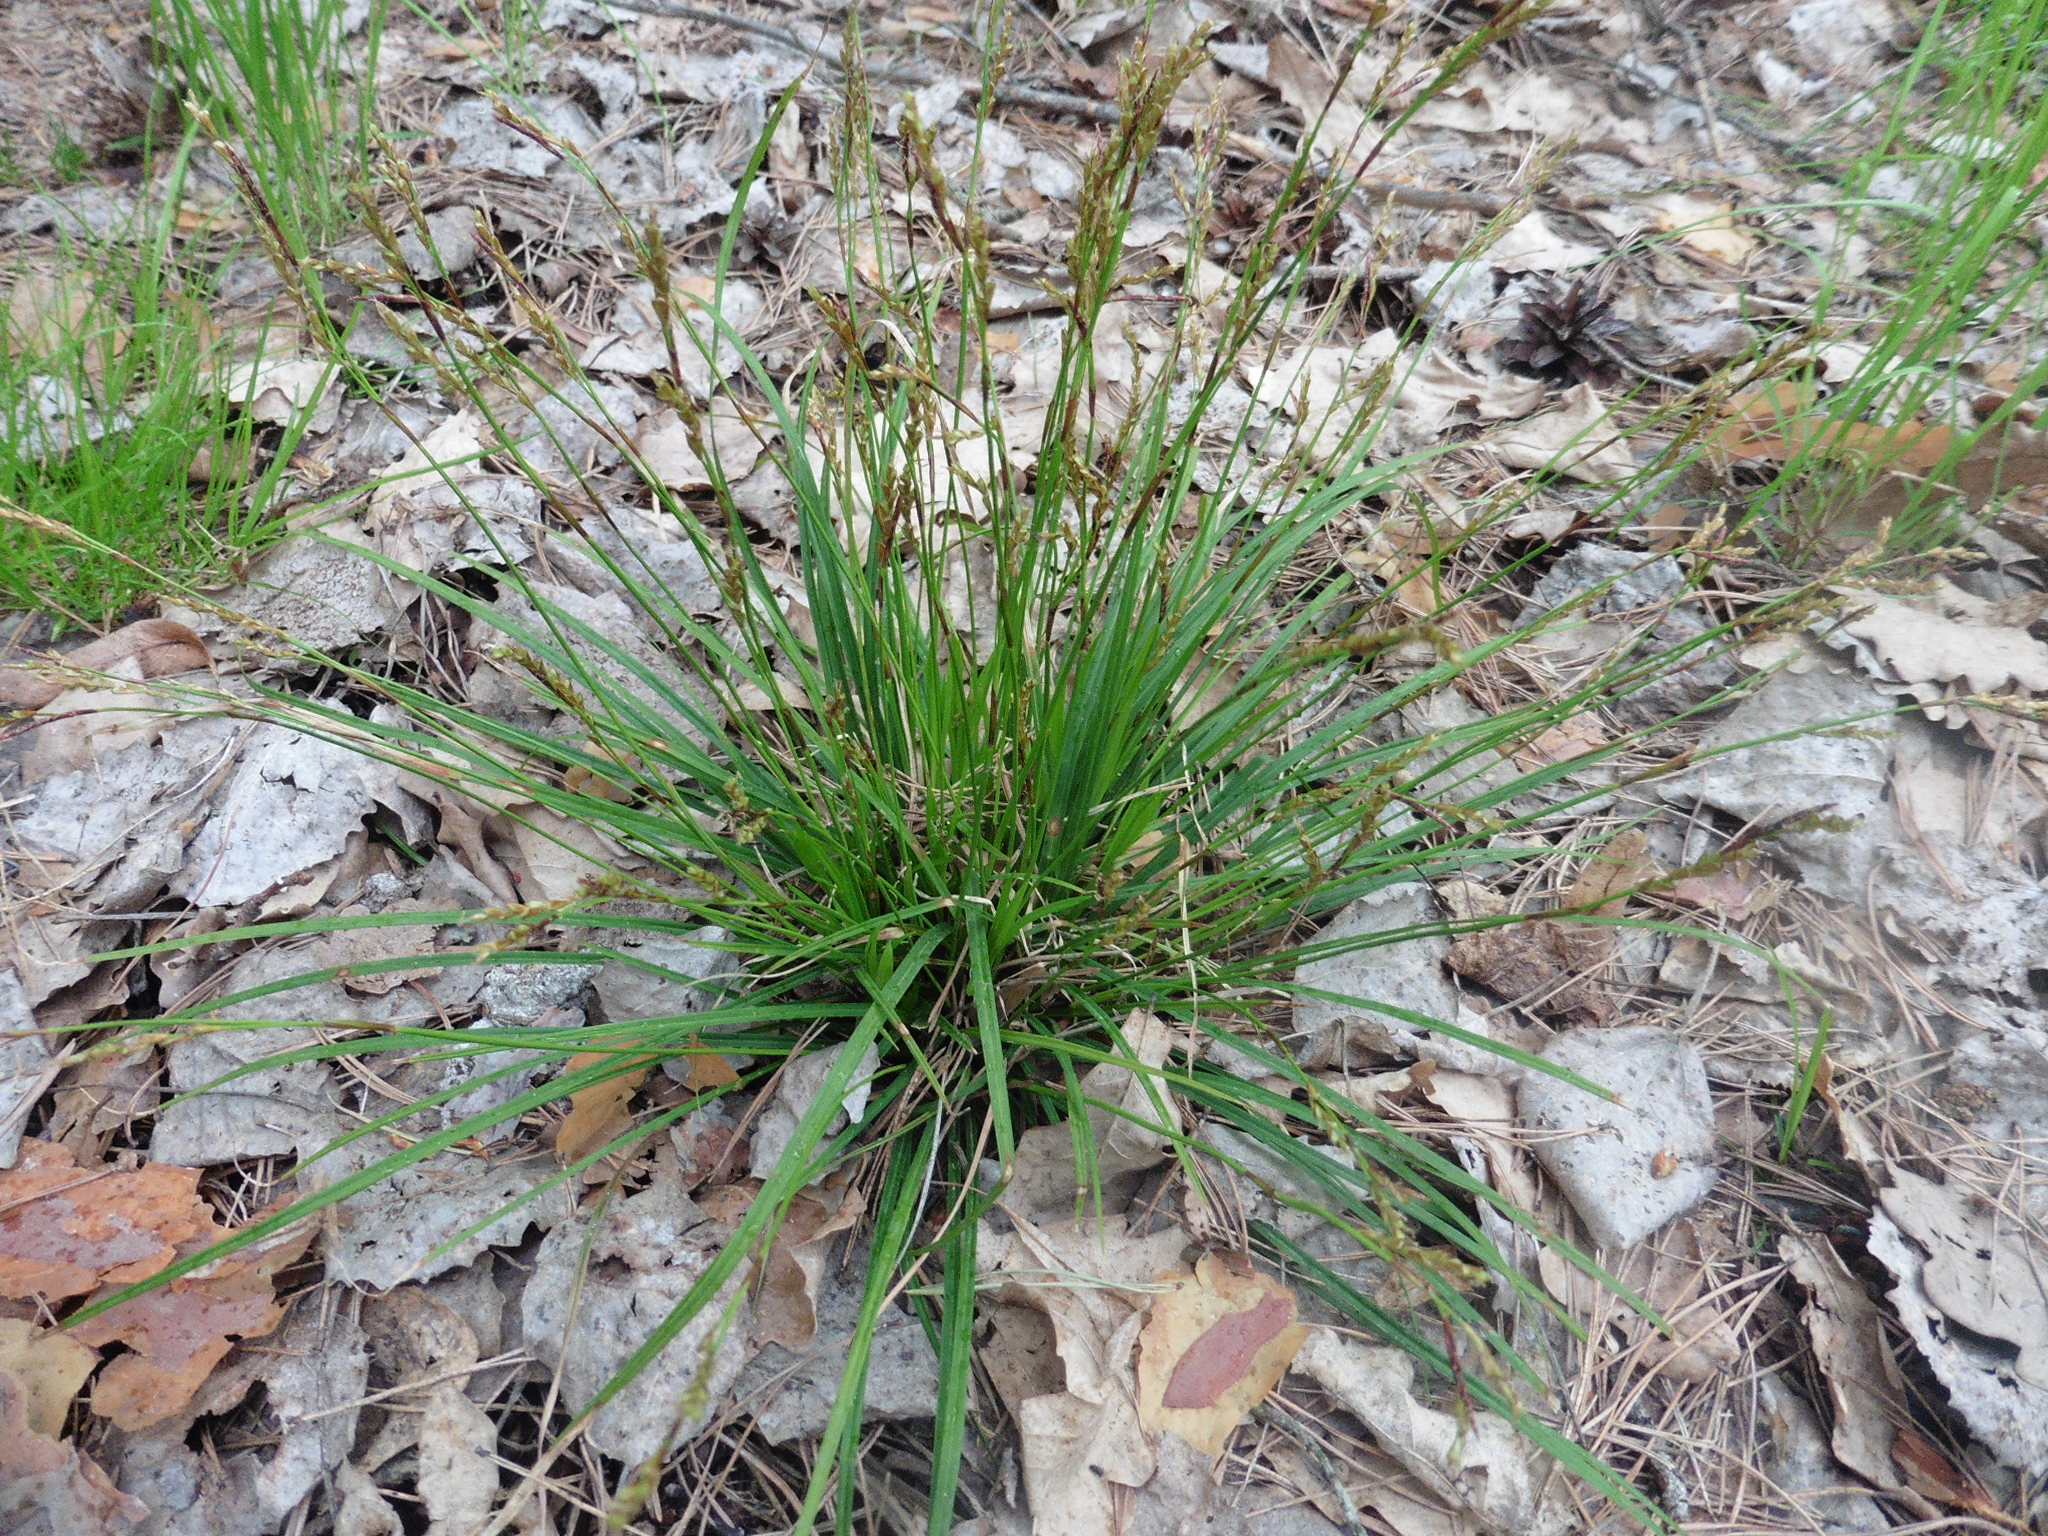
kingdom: Plantae
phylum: Tracheophyta
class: Liliopsida
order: Poales
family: Cyperaceae
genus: Carex
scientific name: Carex digitata
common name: Fingered sedge
